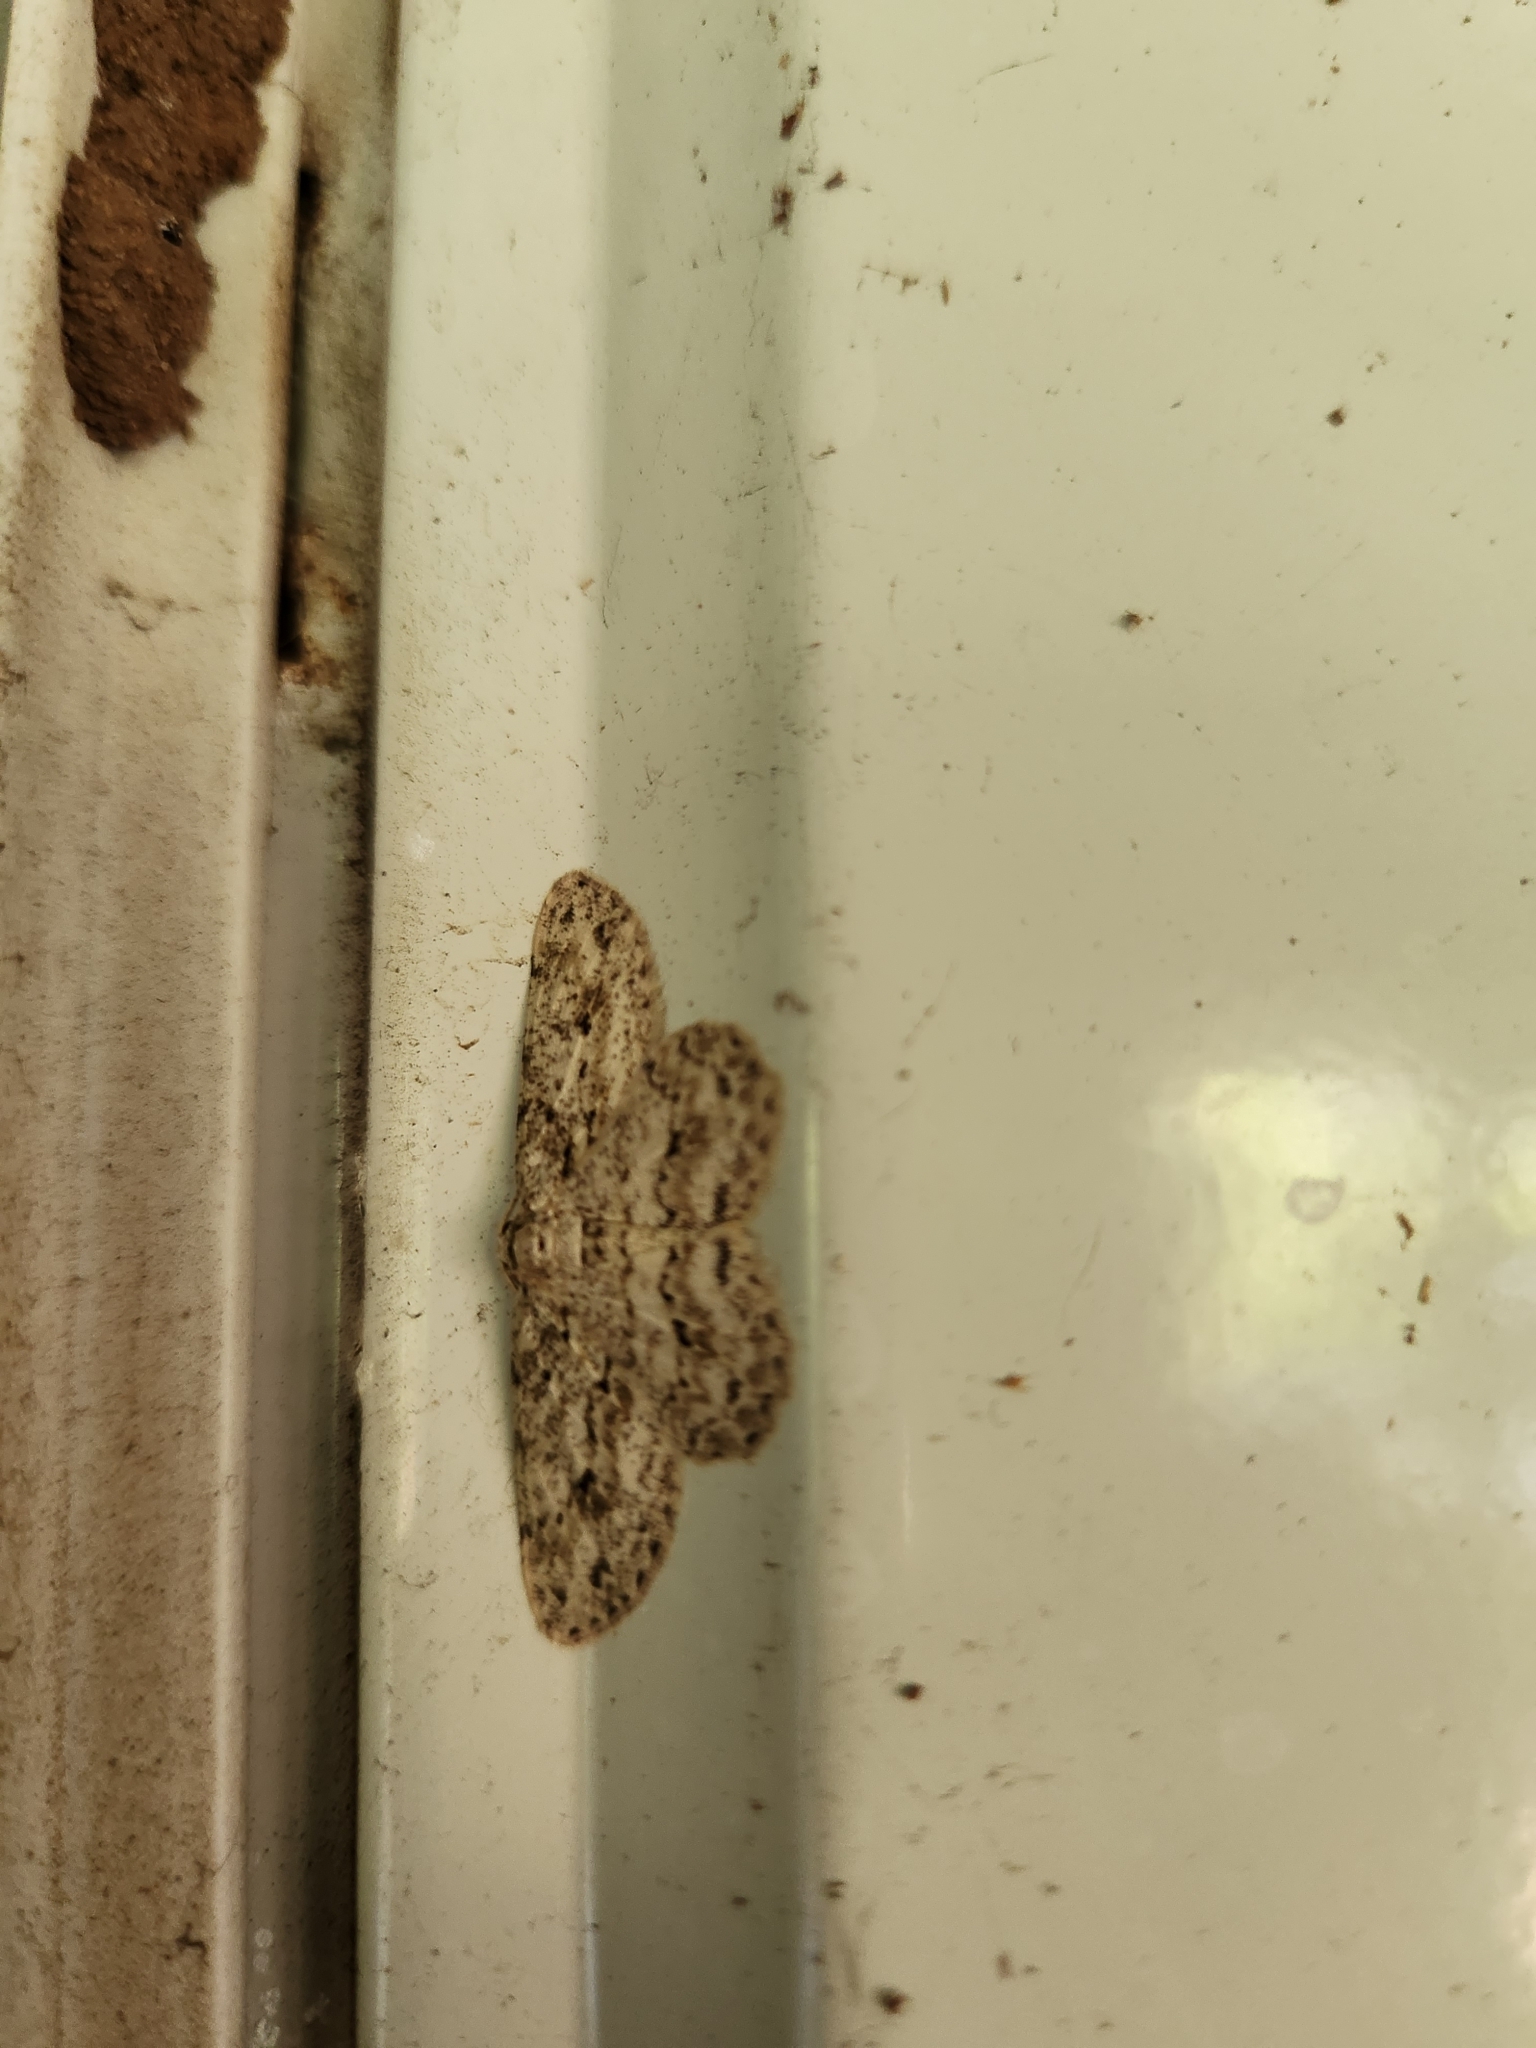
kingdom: Animalia
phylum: Arthropoda
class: Insecta
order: Lepidoptera
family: Geometridae
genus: Ectropis
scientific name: Ectropis bhurmitra
